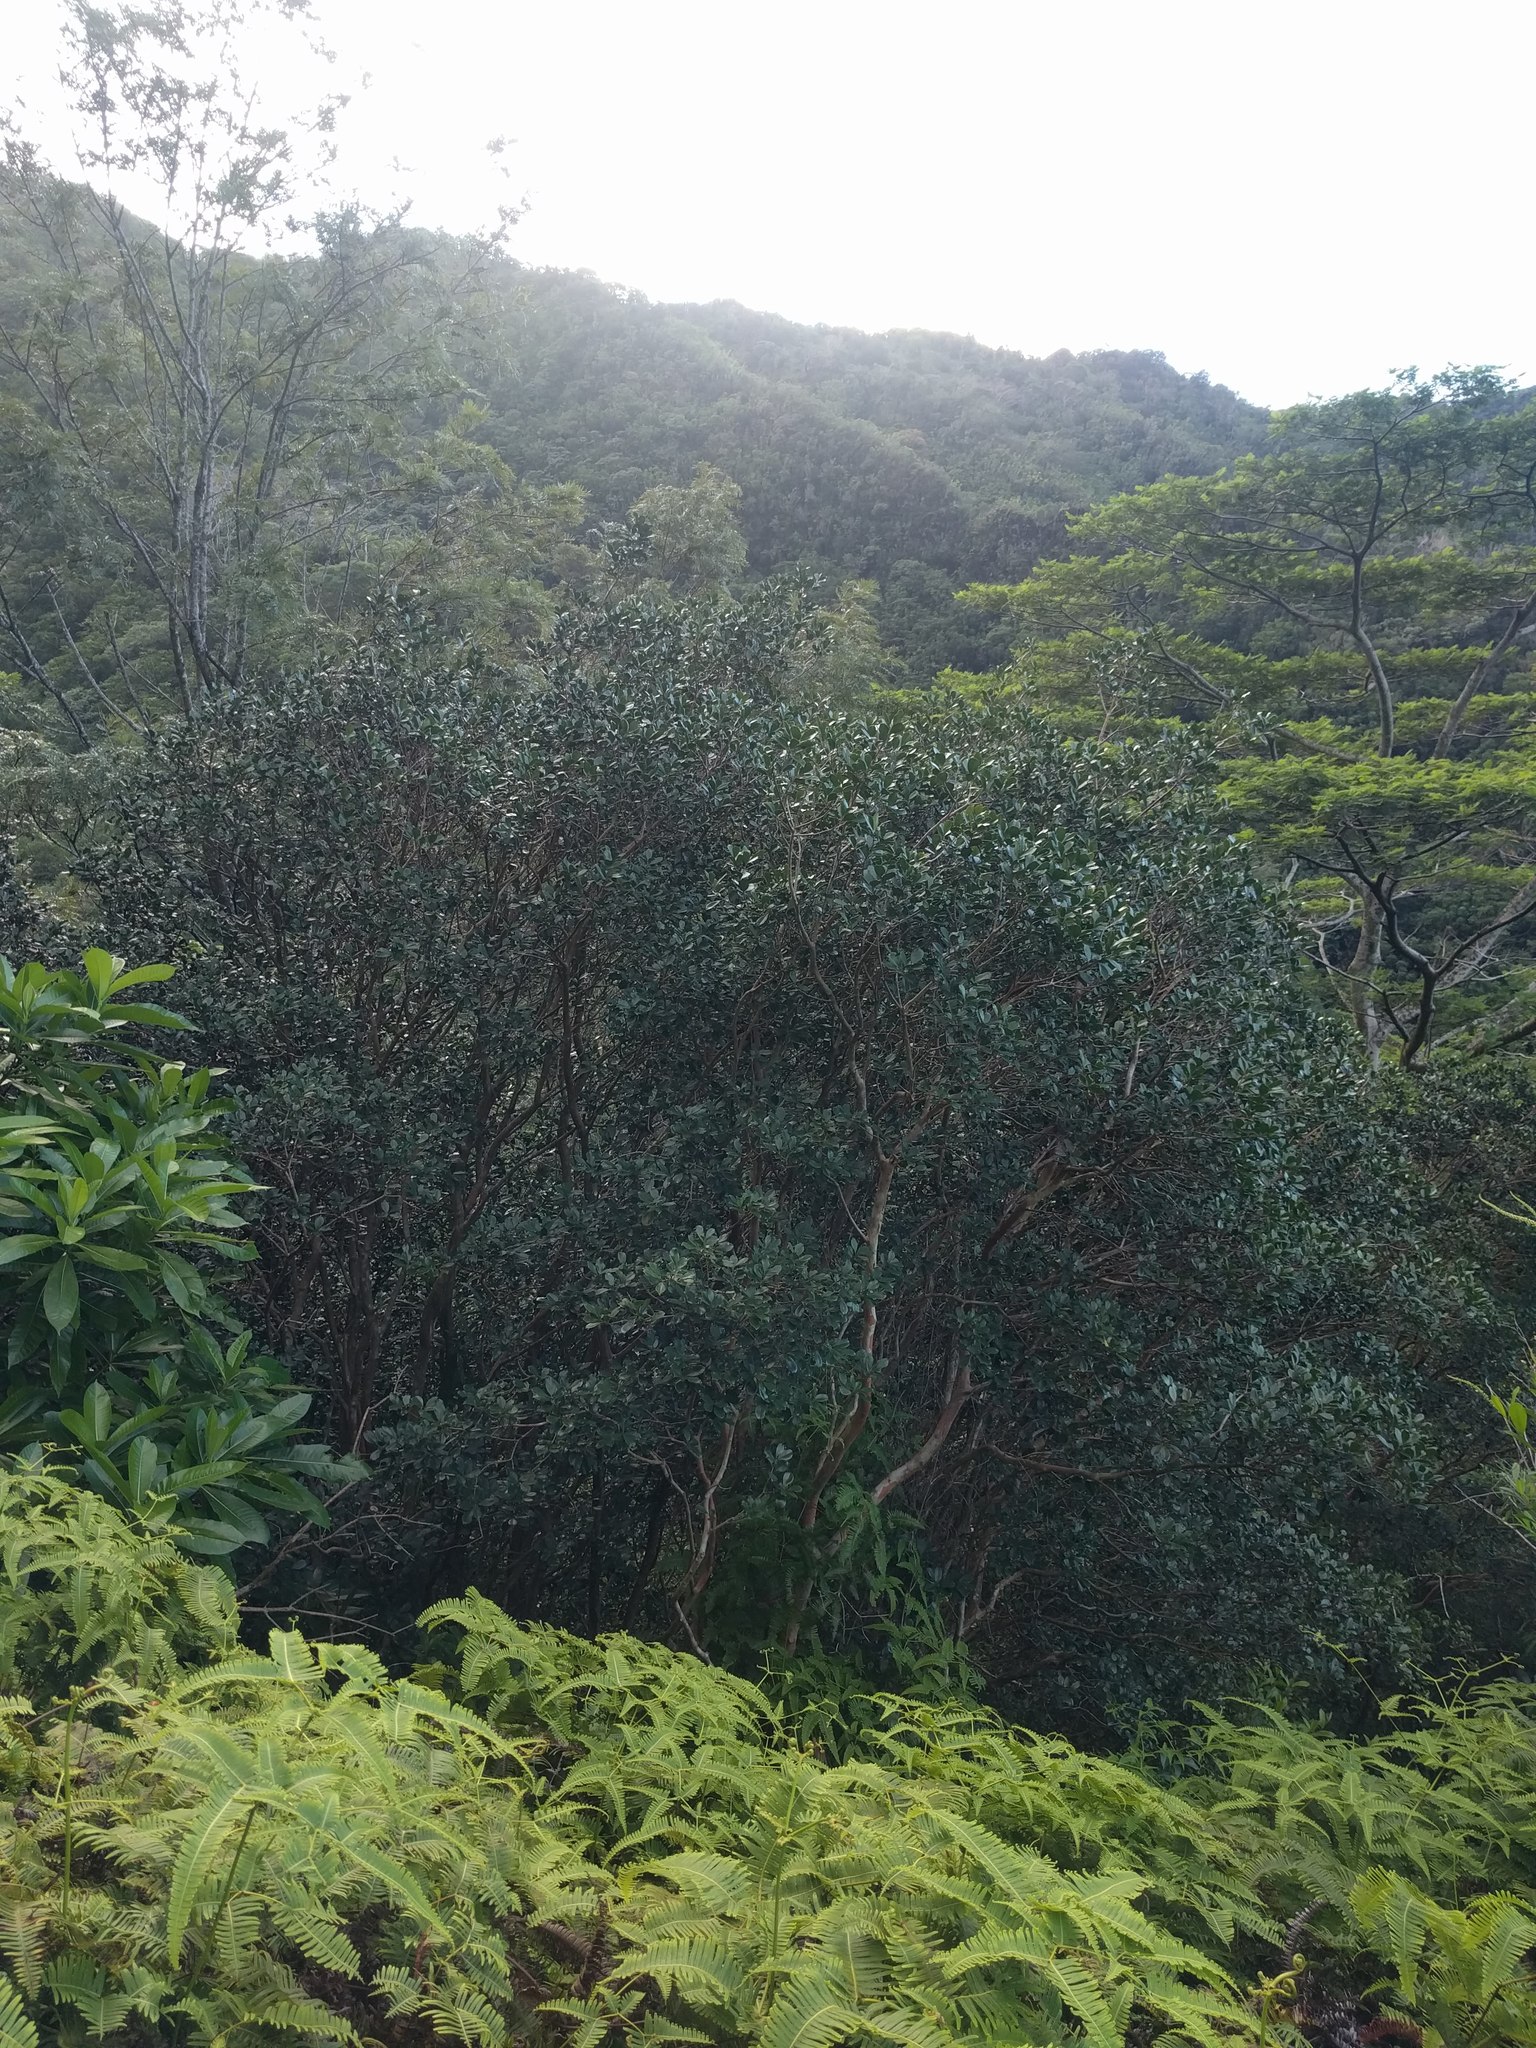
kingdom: Plantae
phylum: Tracheophyta
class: Magnoliopsida
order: Myrtales
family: Myrtaceae
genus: Psidium
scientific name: Psidium cattleianum
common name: Strawberry guava
